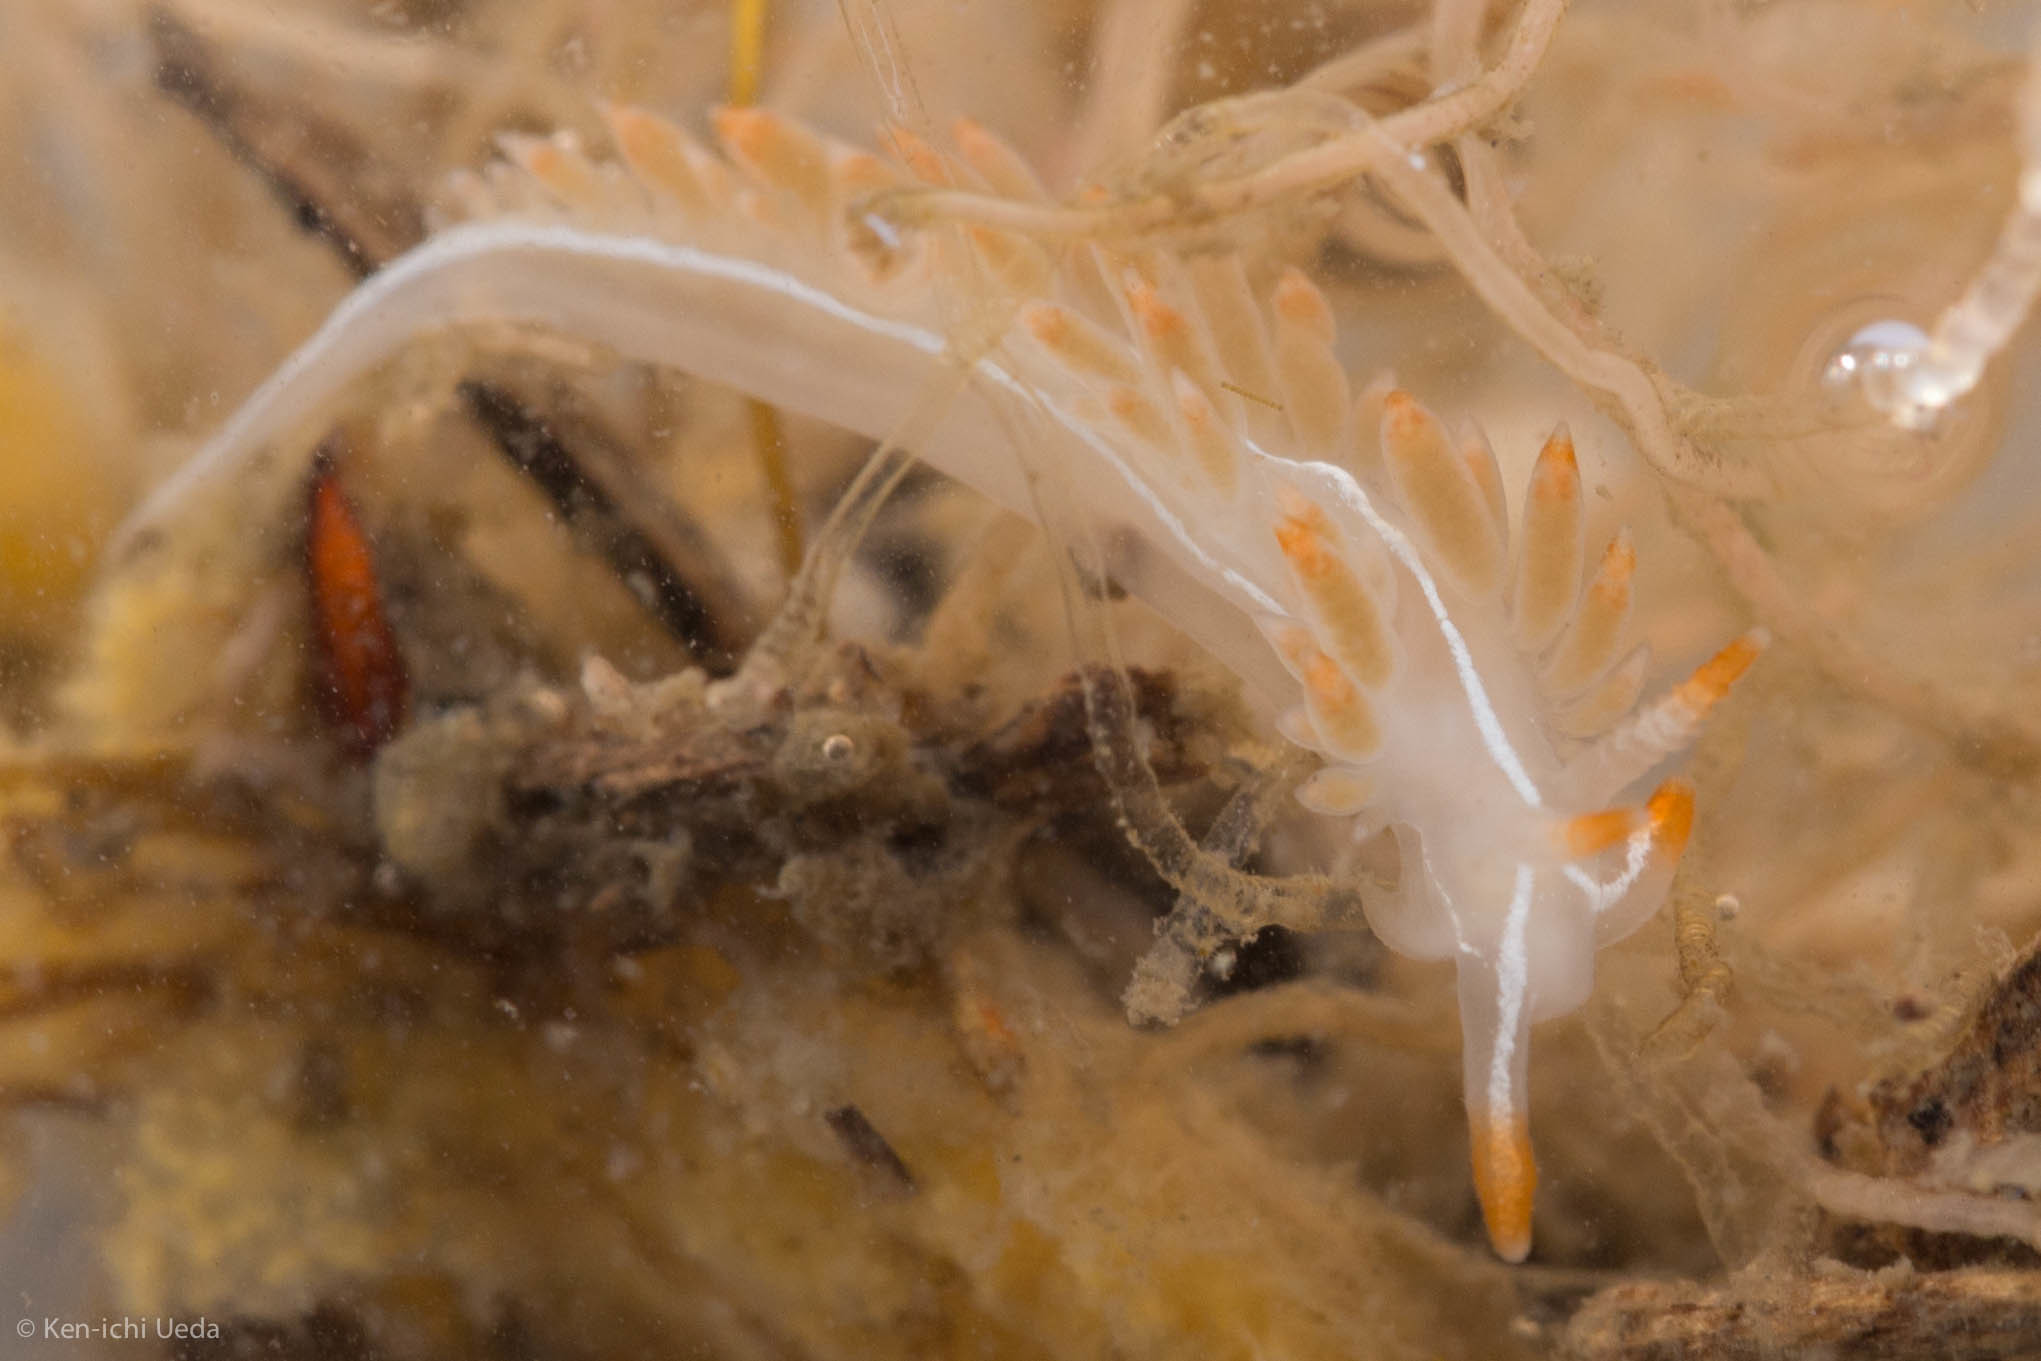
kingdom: Animalia
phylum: Mollusca
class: Gastropoda
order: Nudibranchia
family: Coryphellidae
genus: Coryphella
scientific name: Coryphella trilineata
